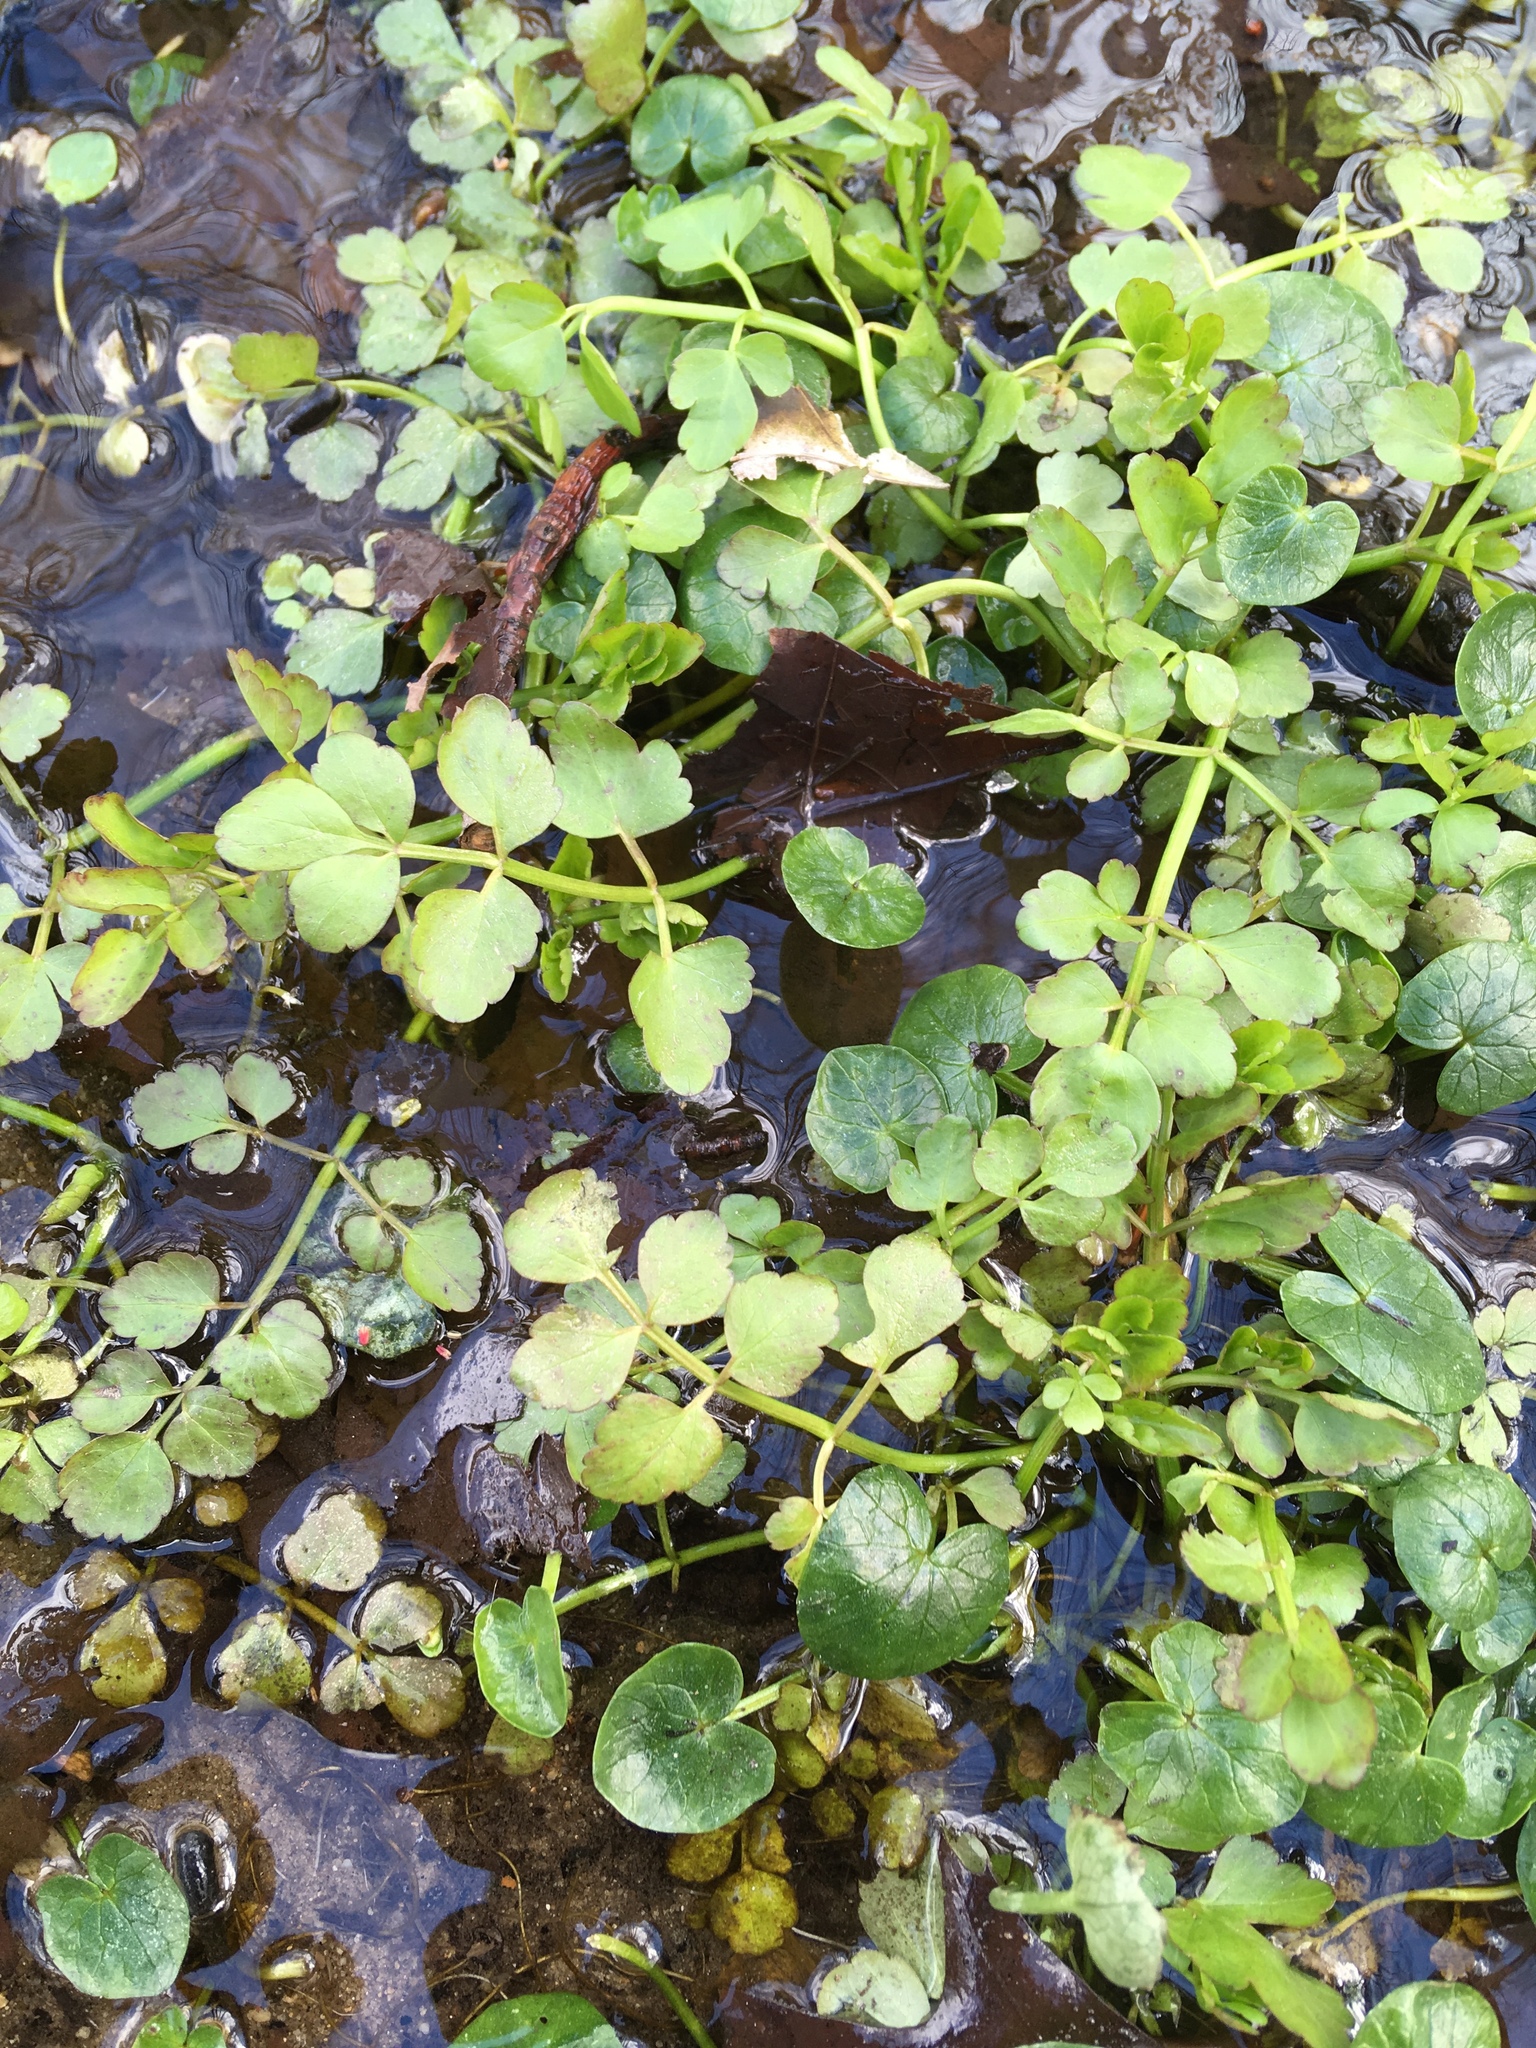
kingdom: Plantae
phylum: Tracheophyta
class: Magnoliopsida
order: Brassicales
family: Brassicaceae
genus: Nasturtium
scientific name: Nasturtium officinale
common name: Watercress
